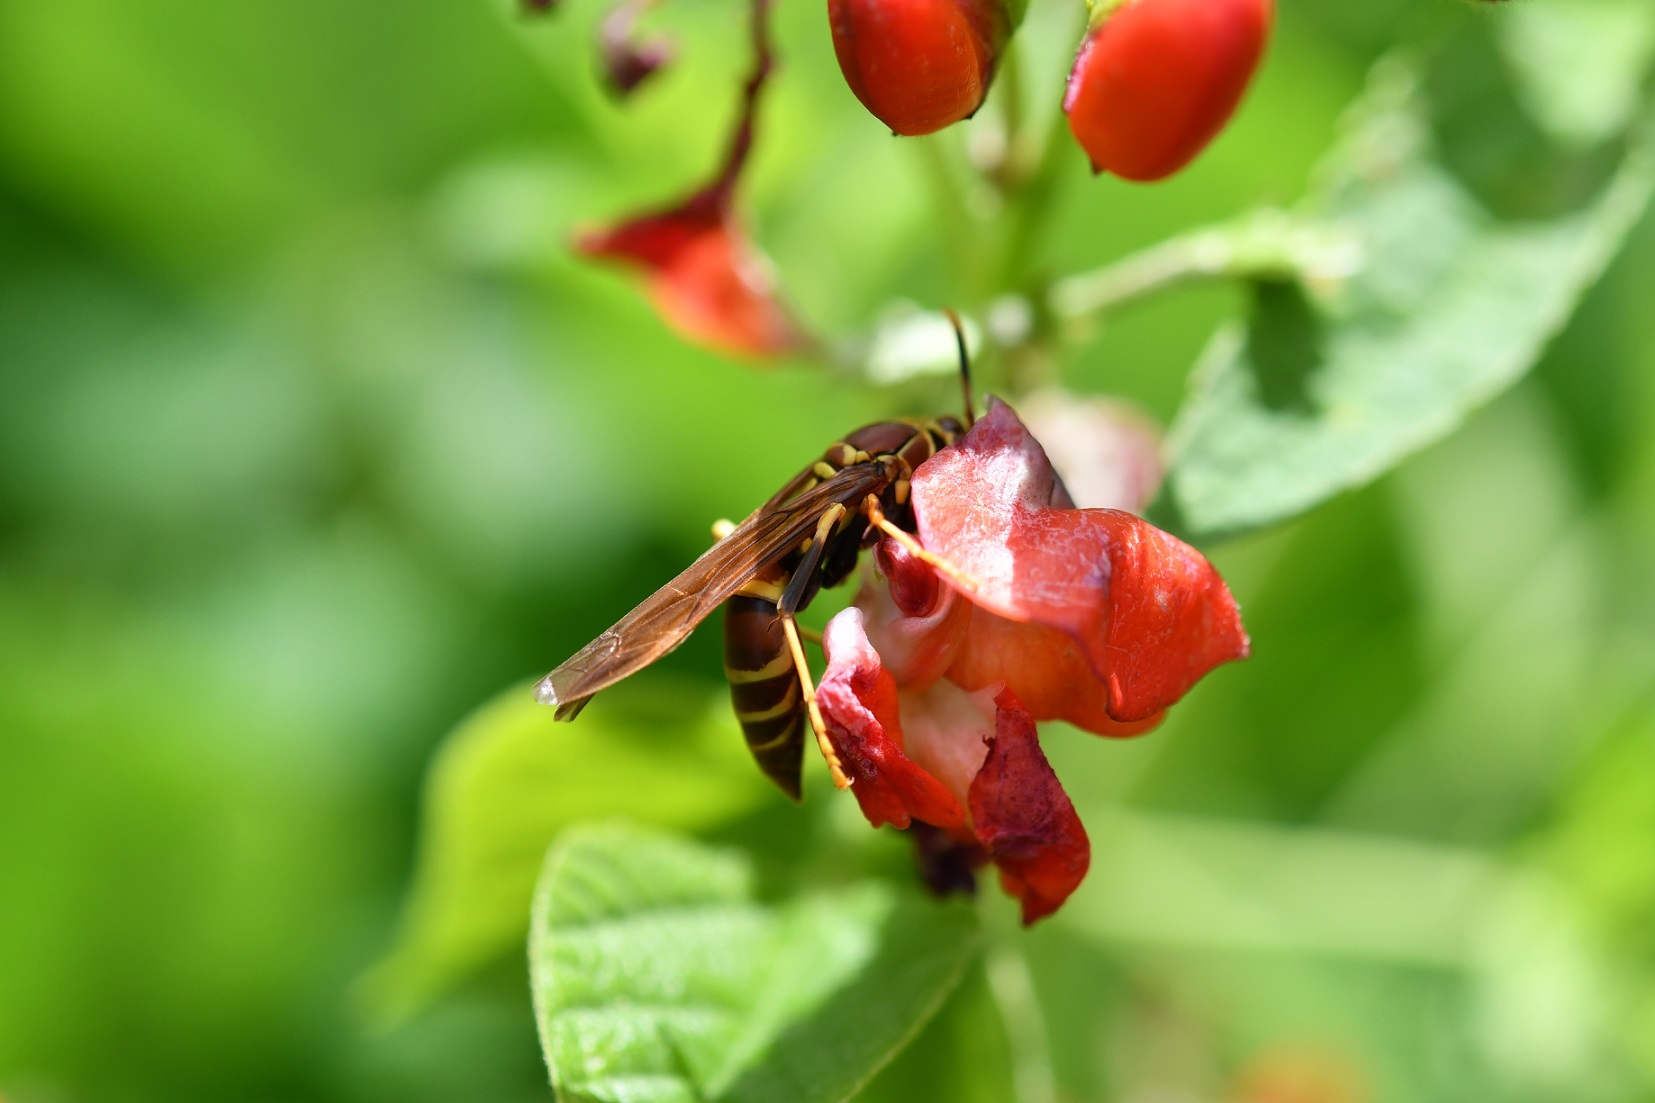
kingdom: Animalia
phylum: Arthropoda
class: Insecta
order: Hymenoptera
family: Eumenidae
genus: Polistes
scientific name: Polistes instabilis
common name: Unstable paper wasp
